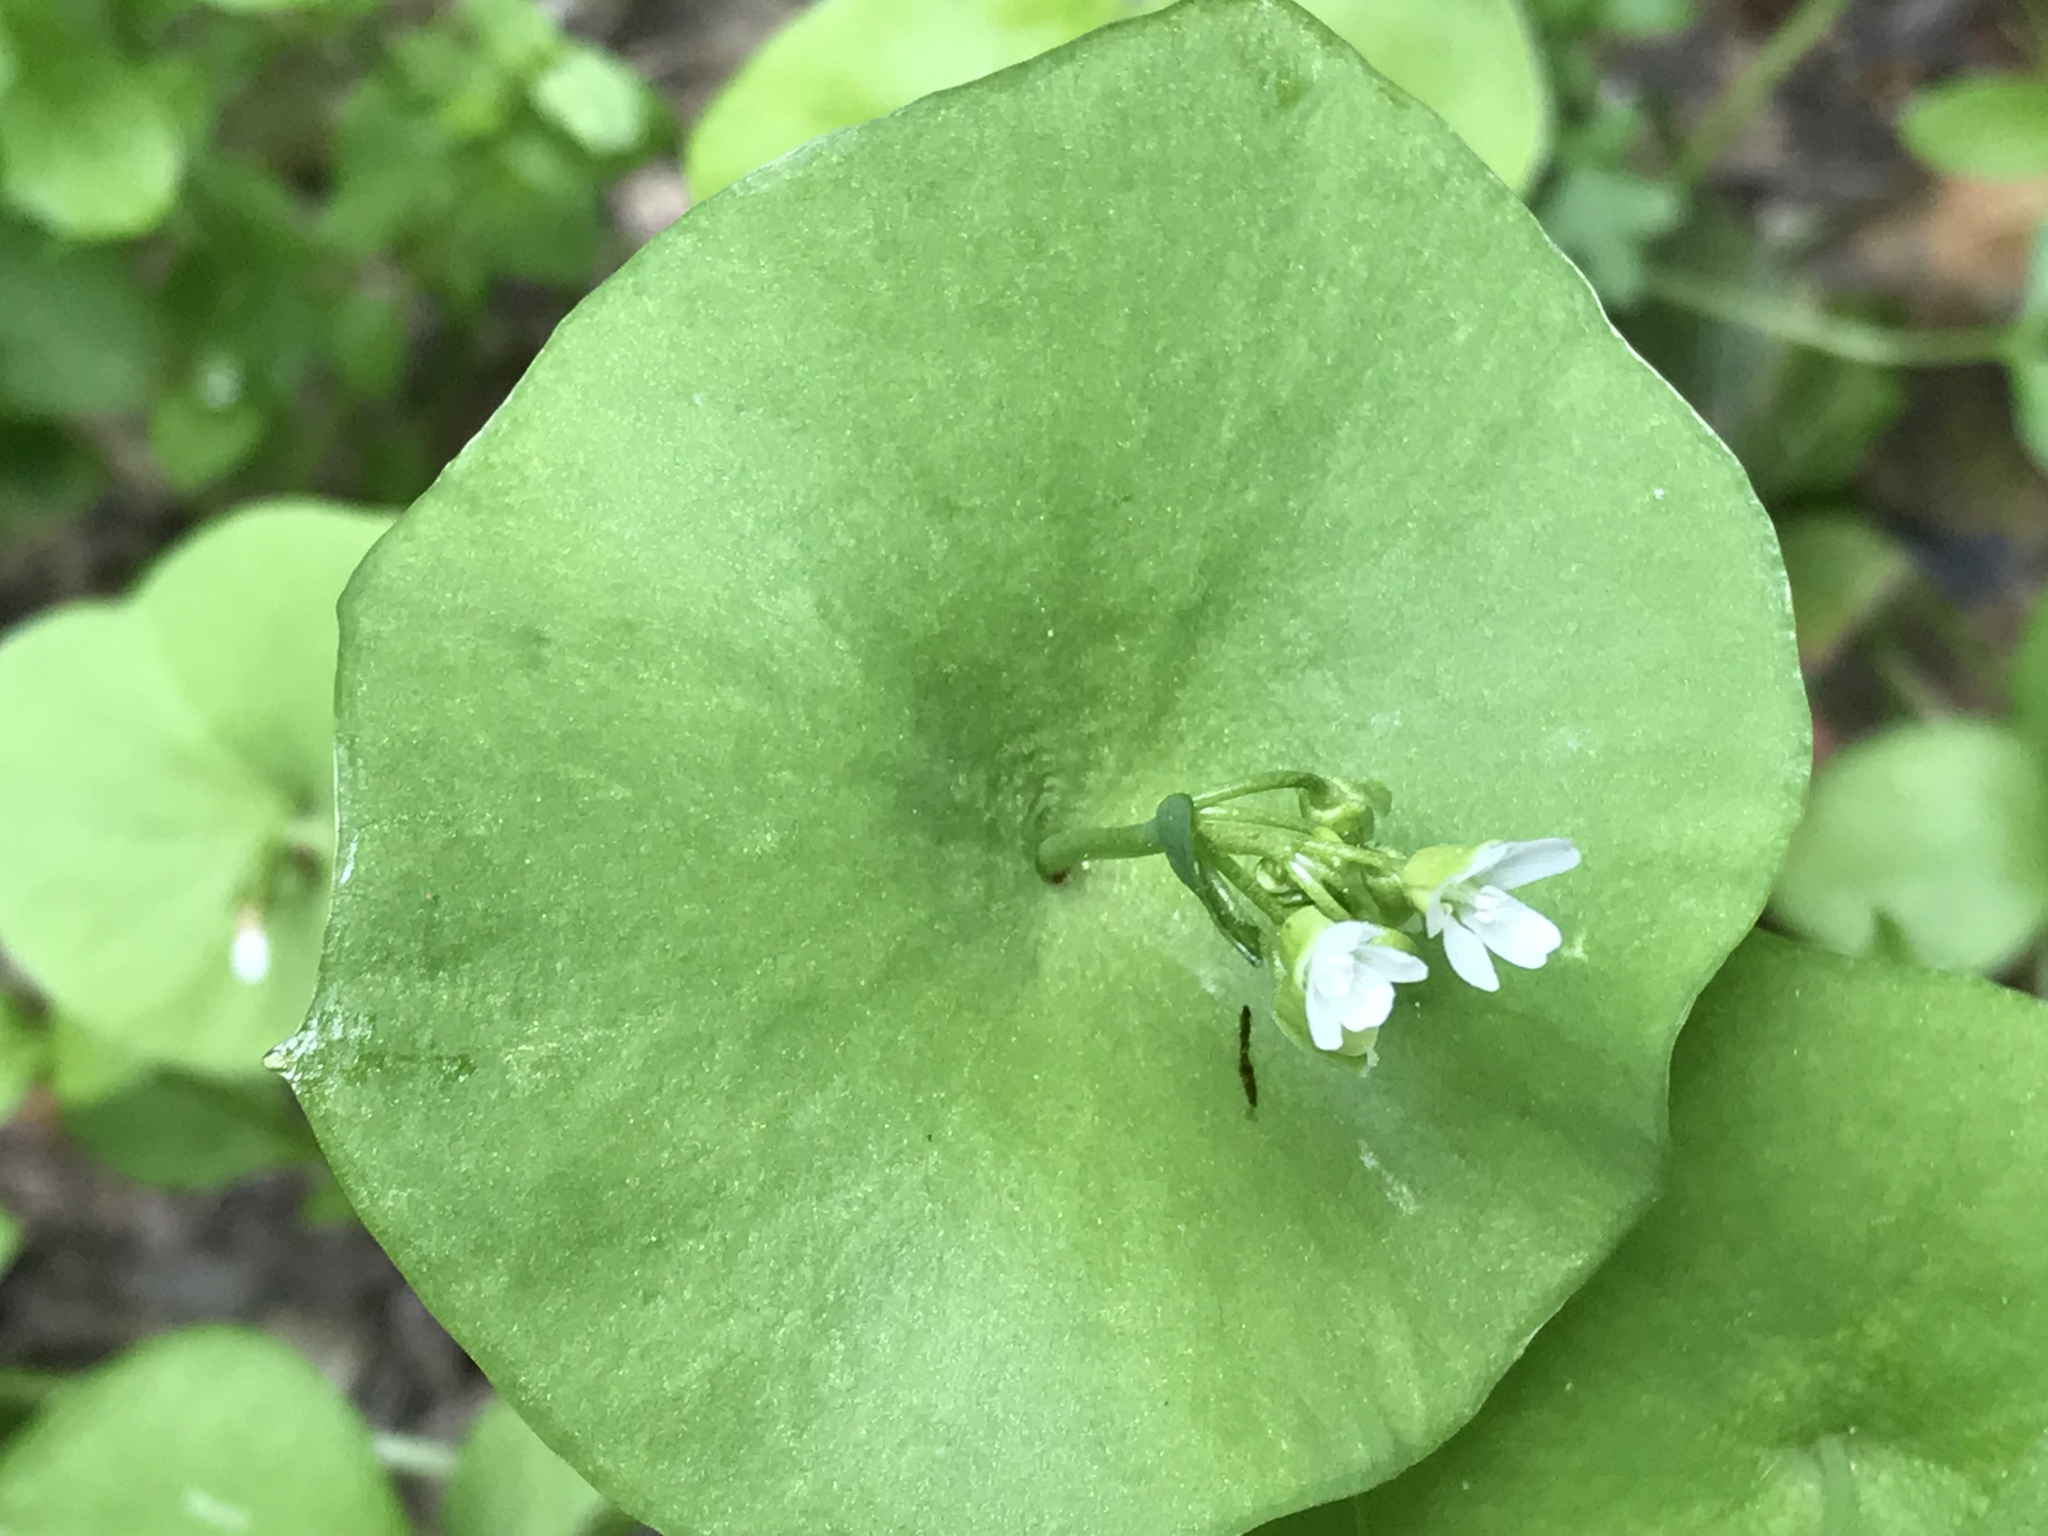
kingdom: Plantae
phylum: Tracheophyta
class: Magnoliopsida
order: Caryophyllales
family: Montiaceae
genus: Claytonia
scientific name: Claytonia perfoliata
